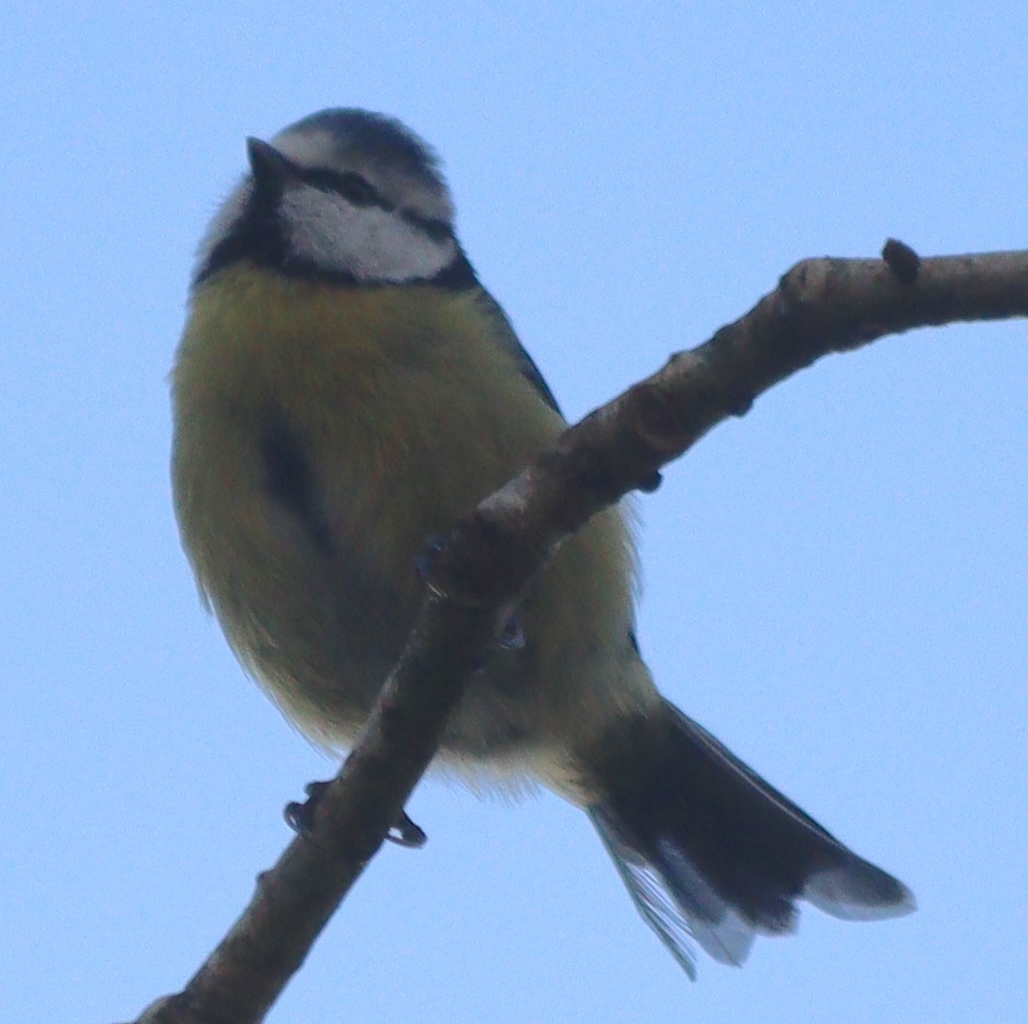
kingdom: Animalia
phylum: Chordata
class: Aves
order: Passeriformes
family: Paridae
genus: Cyanistes
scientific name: Cyanistes caeruleus
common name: Eurasian blue tit
